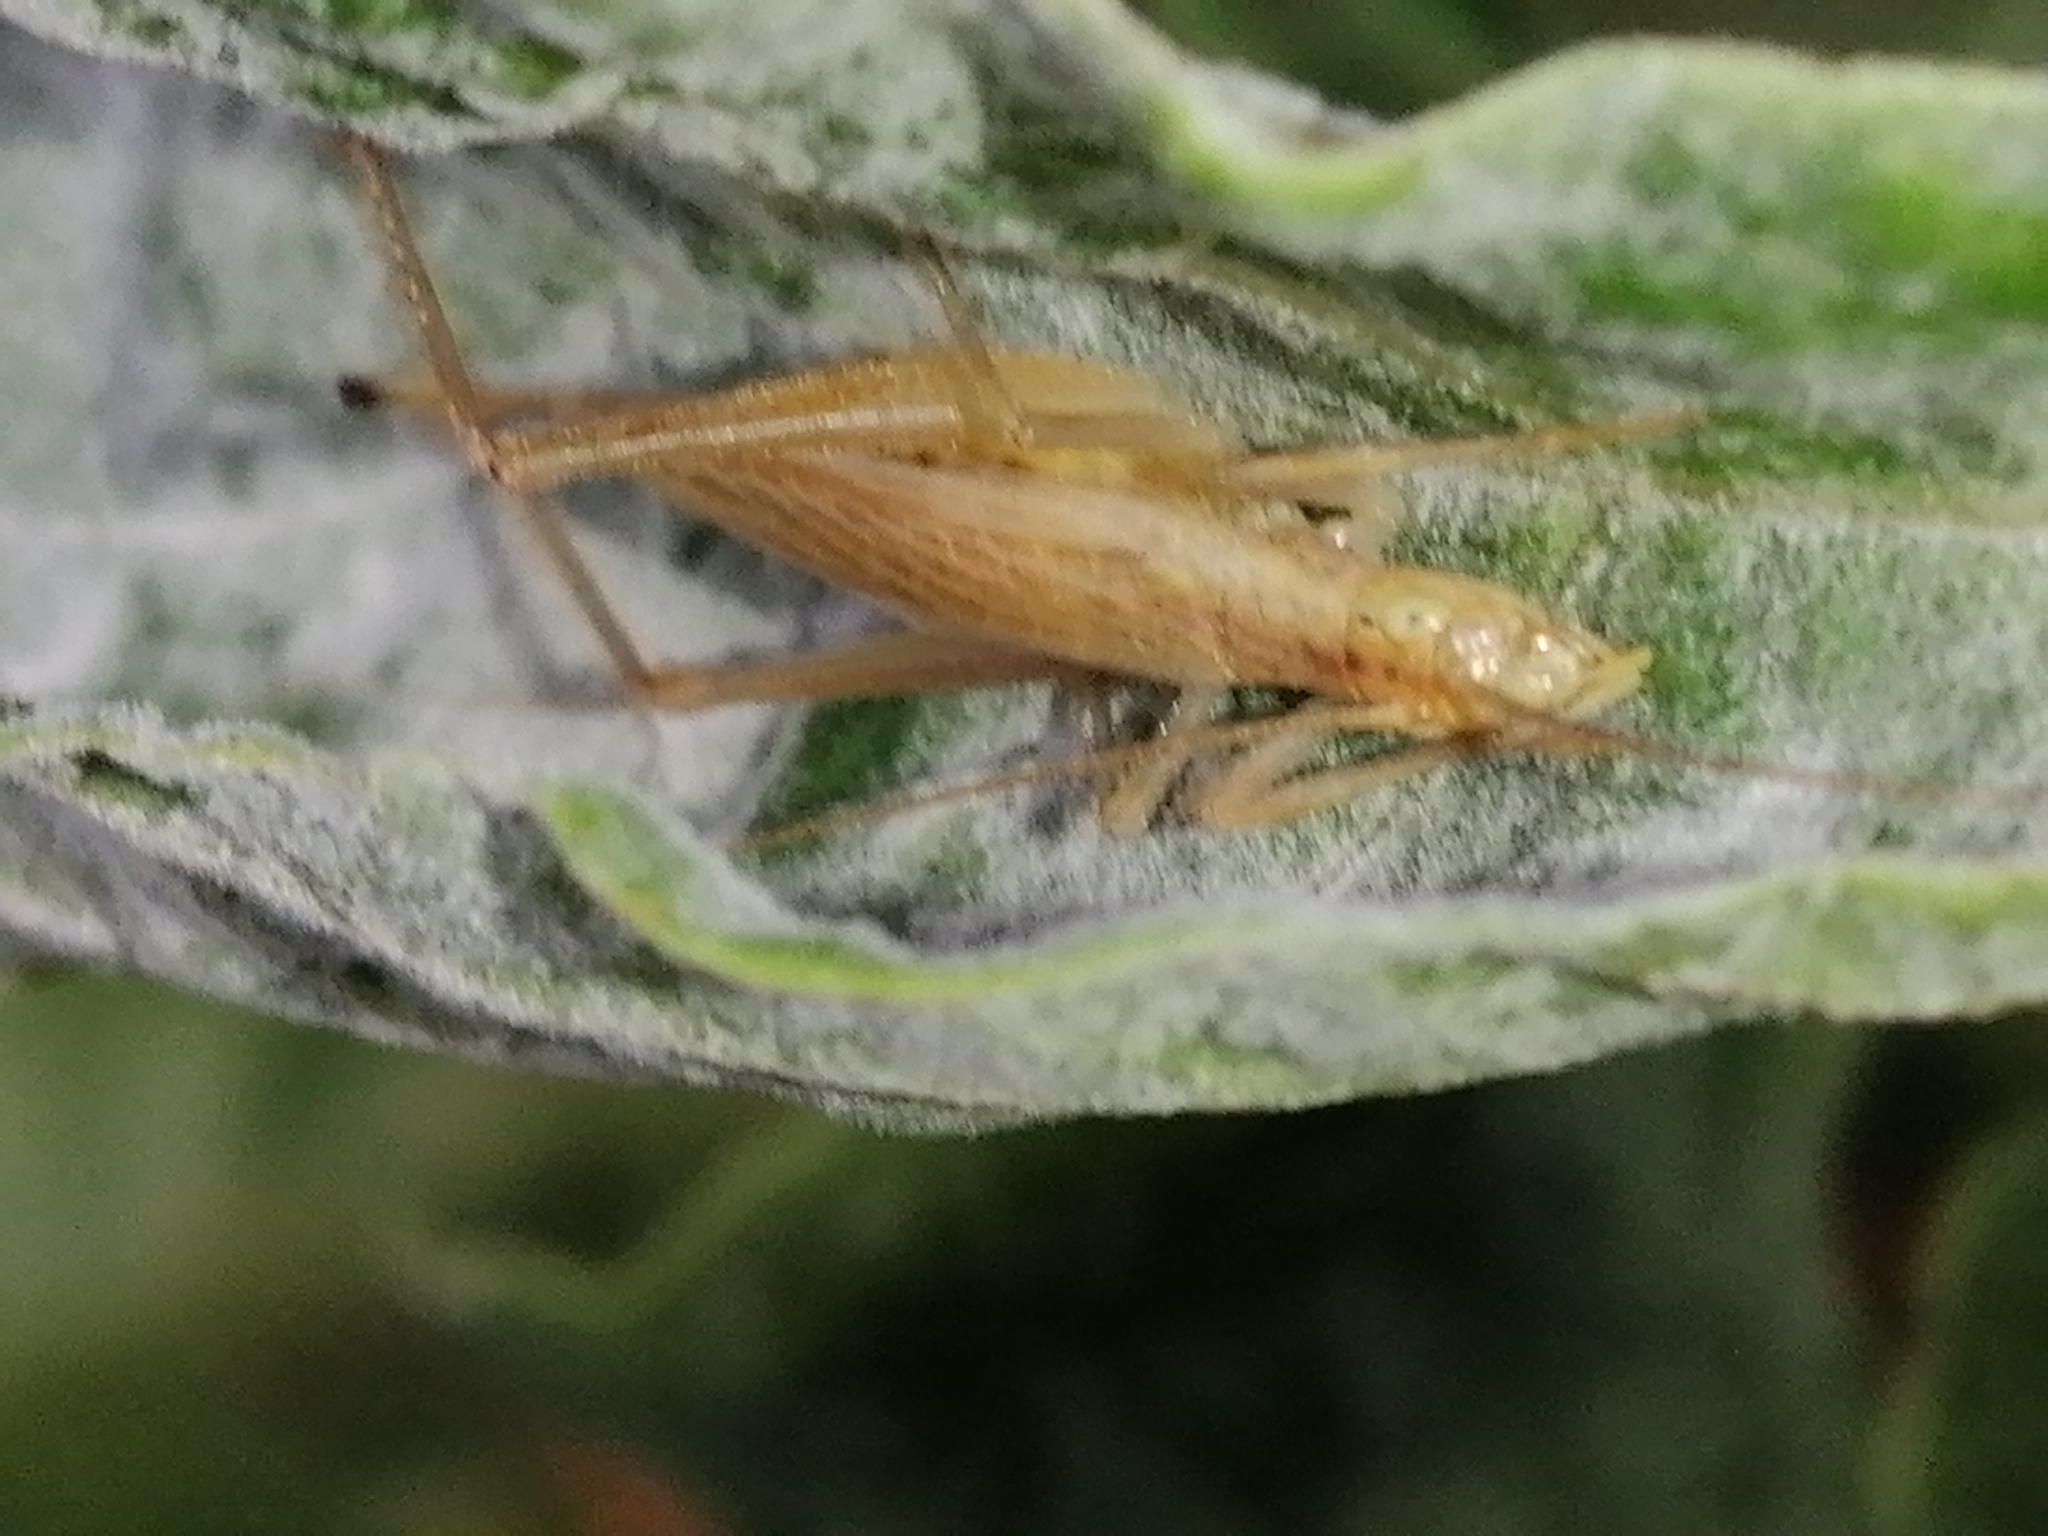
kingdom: Animalia
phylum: Arthropoda
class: Insecta
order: Orthoptera
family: Gryllidae
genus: Oecanthus
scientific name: Oecanthus pellucens
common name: Tree-cricket
